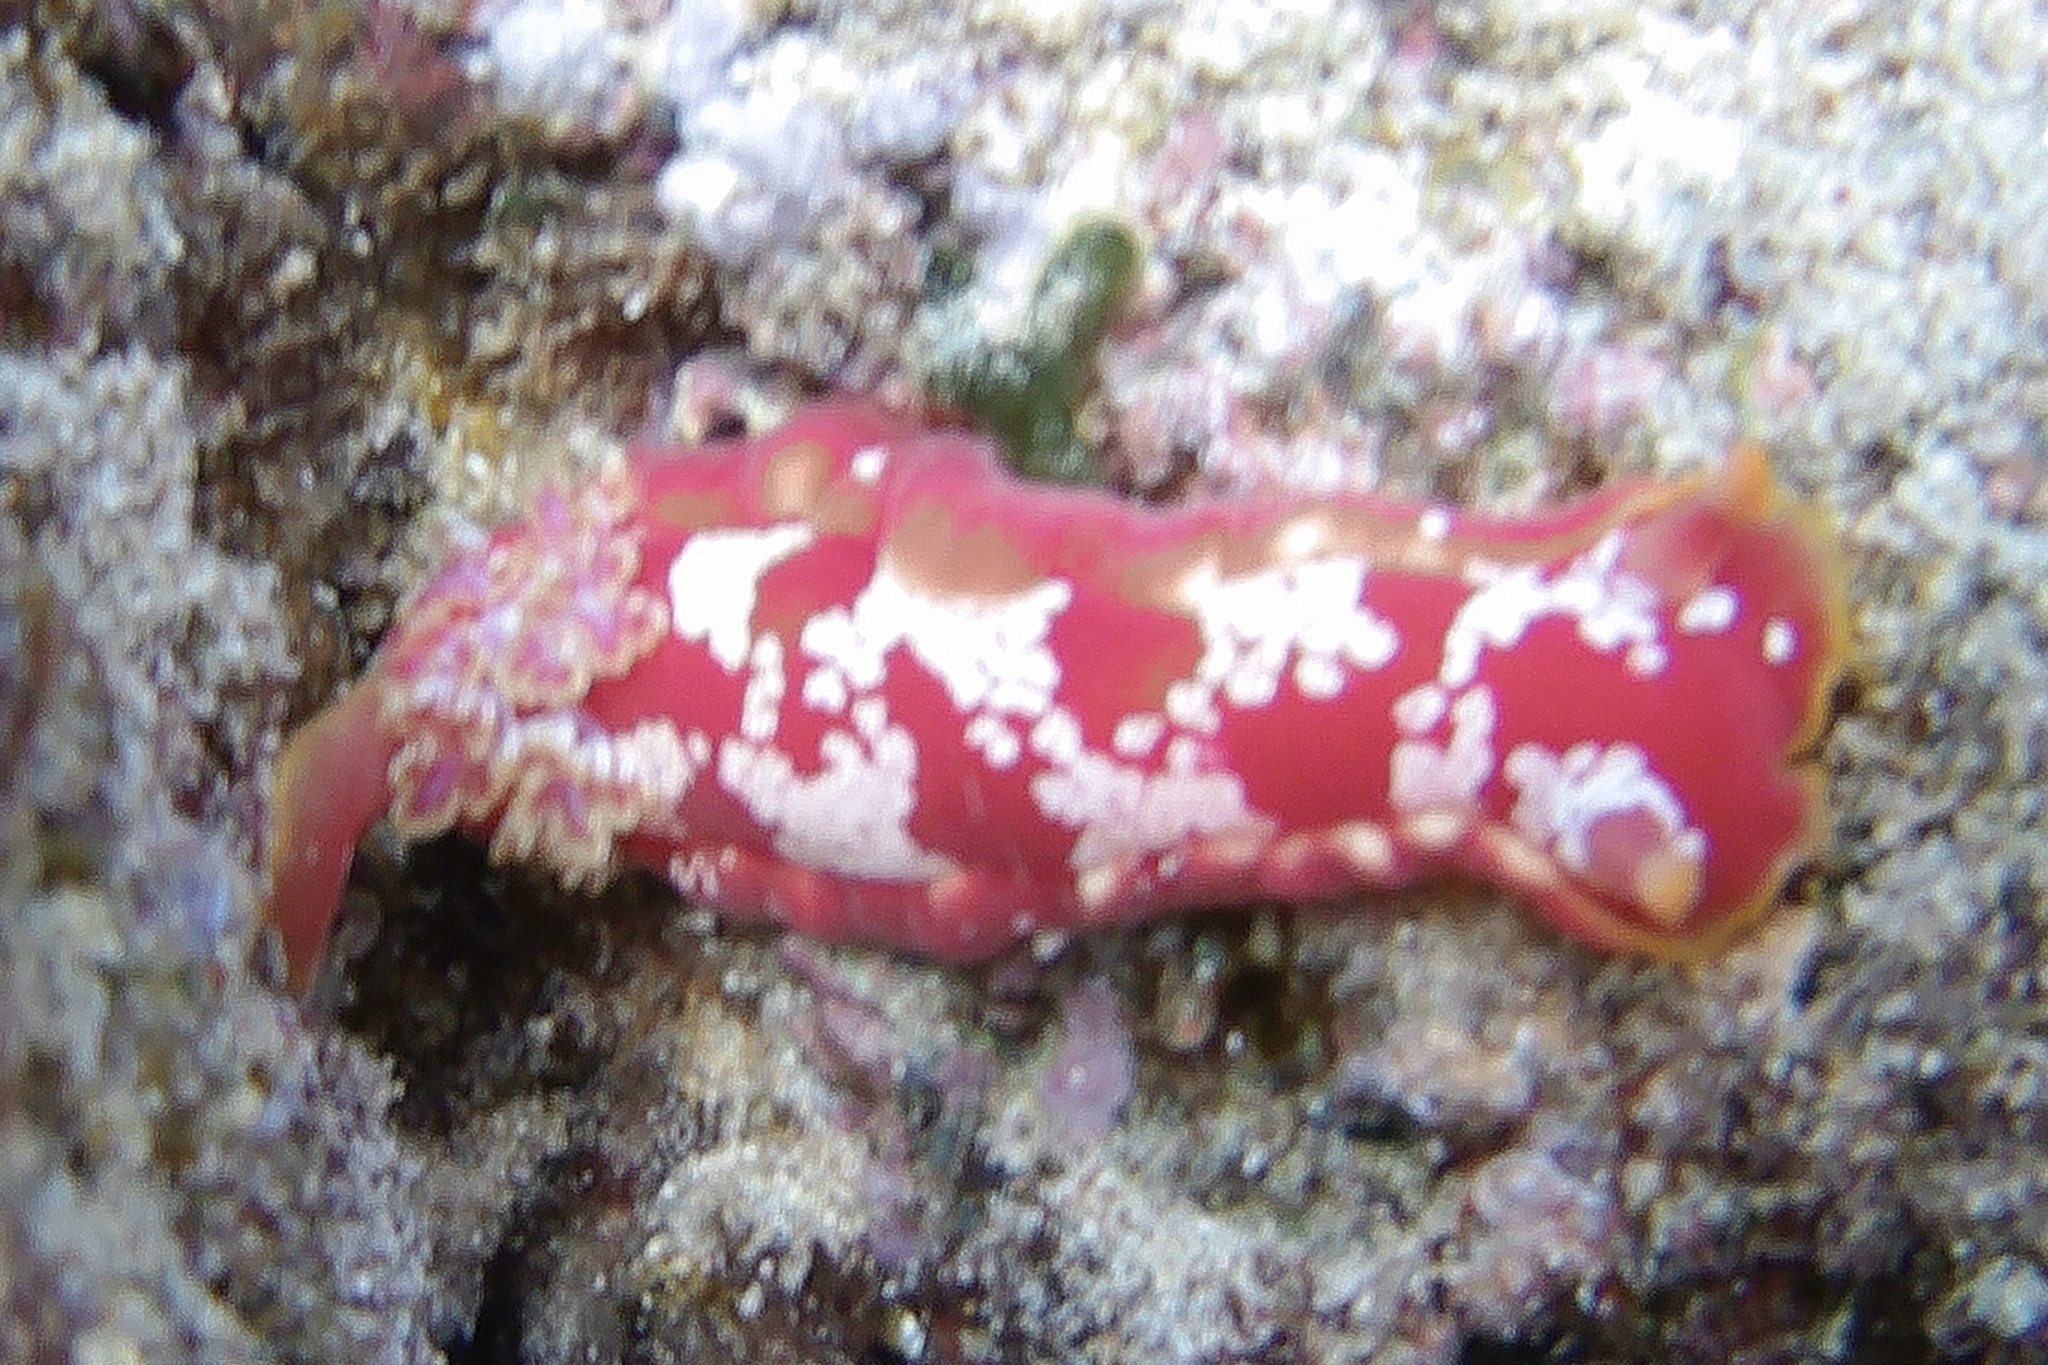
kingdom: Animalia
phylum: Mollusca
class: Gastropoda
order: Nudibranchia
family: Hexabranchidae
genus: Hexabranchus
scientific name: Hexabranchus aureomarginatus
